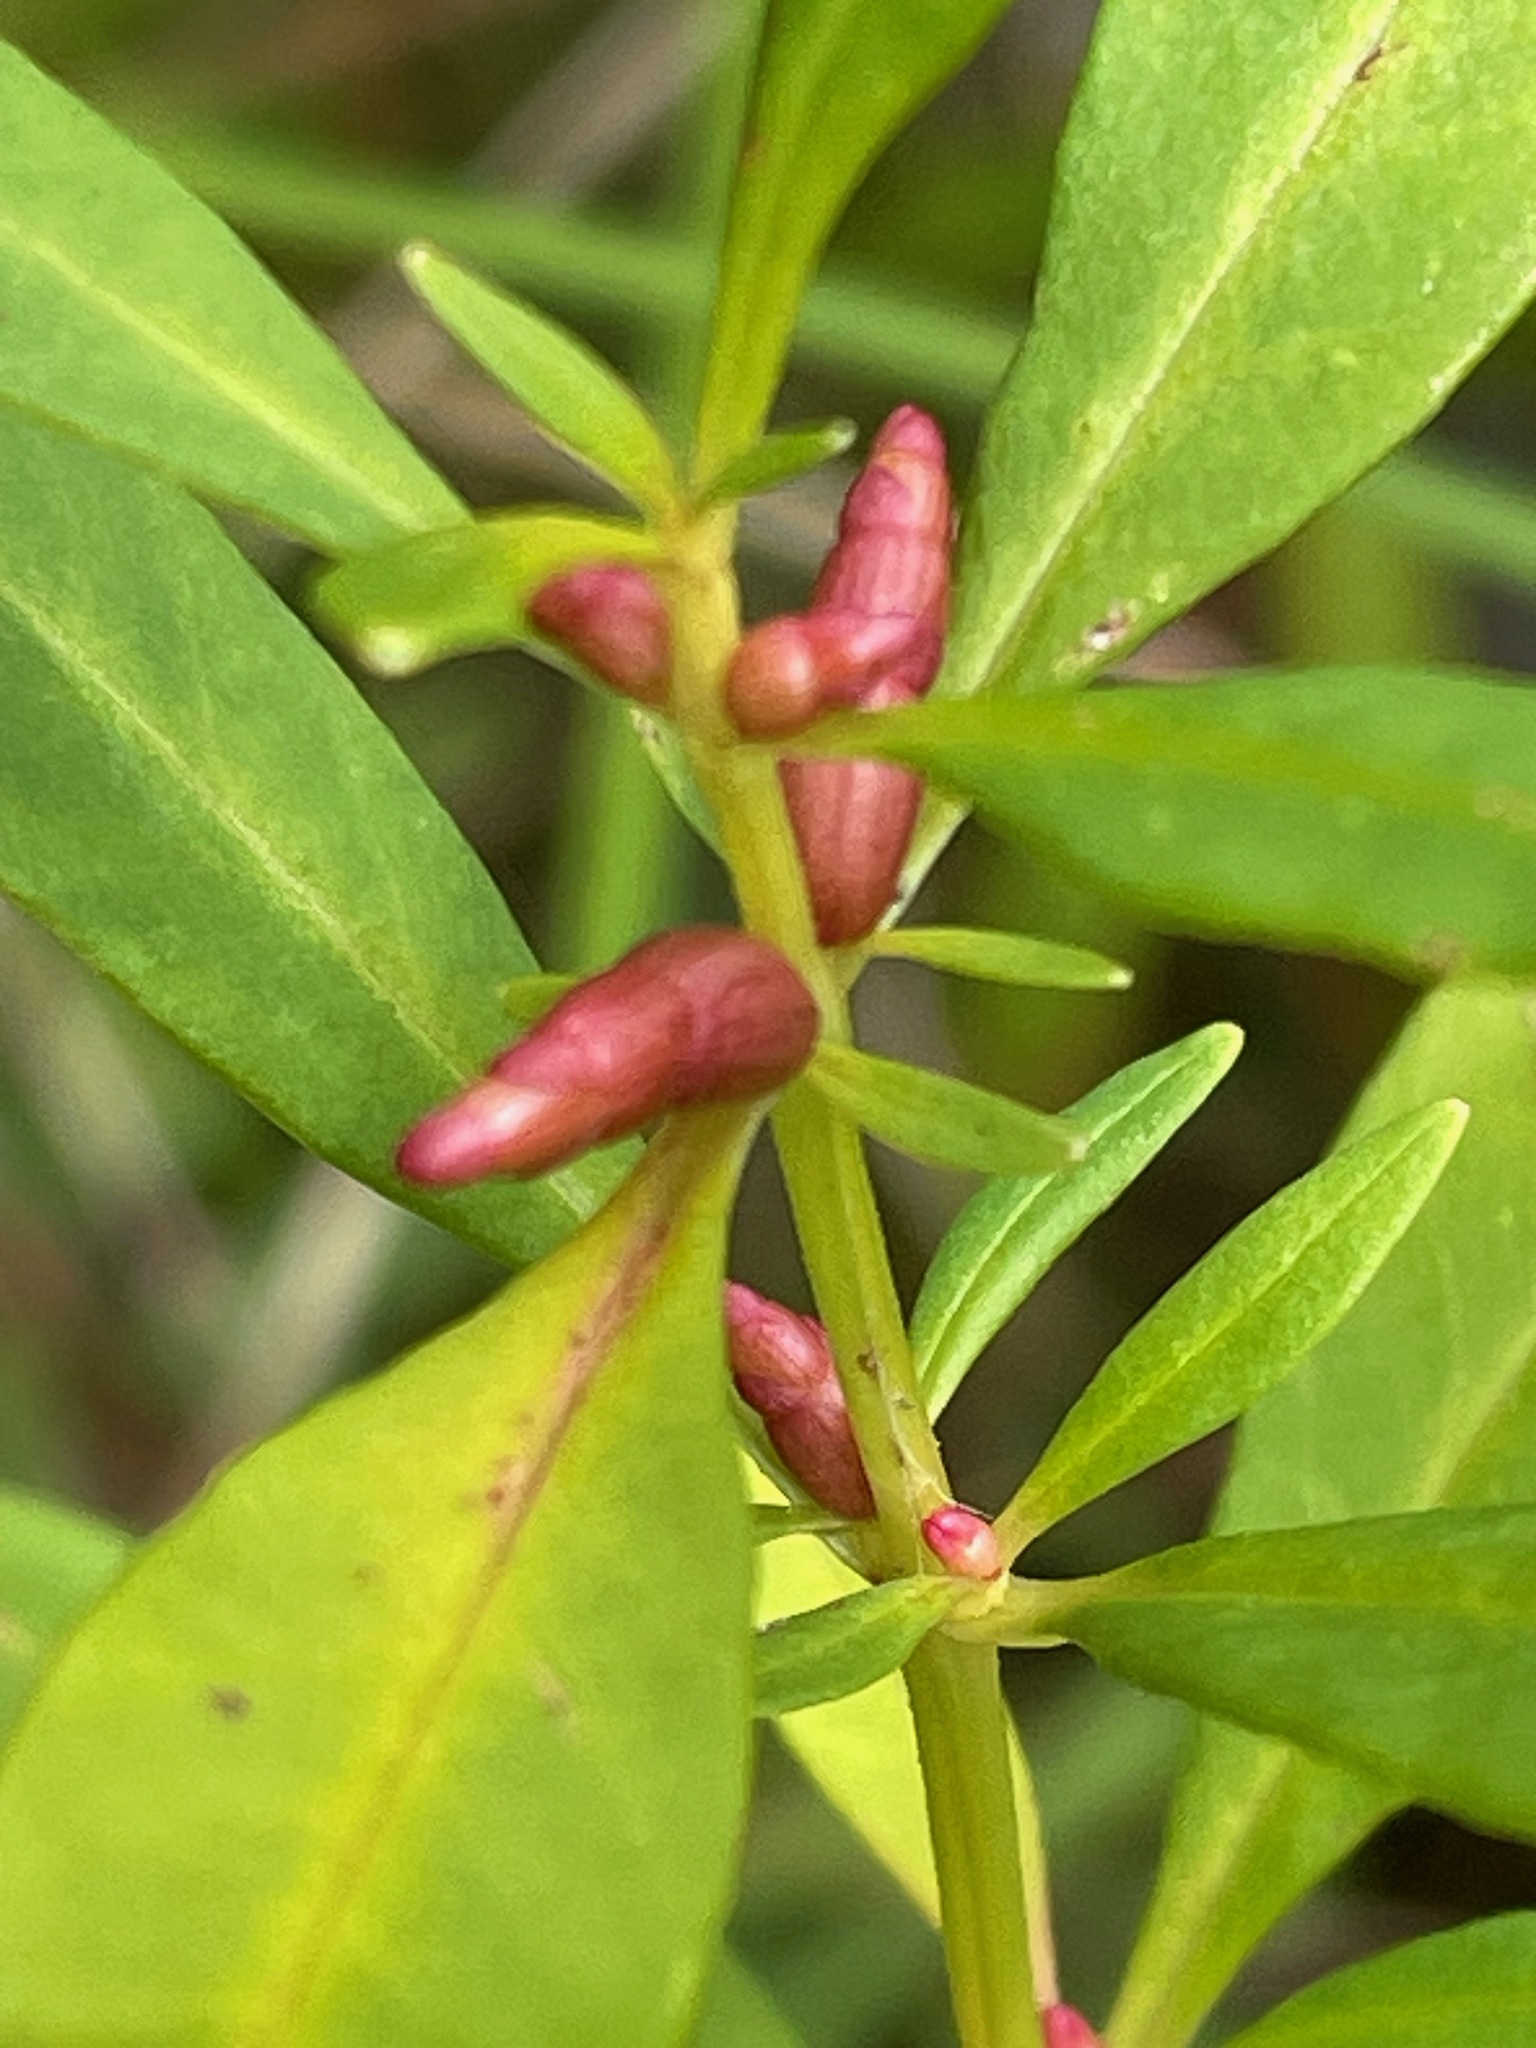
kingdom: Plantae
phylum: Tracheophyta
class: Magnoliopsida
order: Ericales
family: Primulaceae
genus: Lysimachia
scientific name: Lysimachia terrestris
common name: Lake loosestrife
